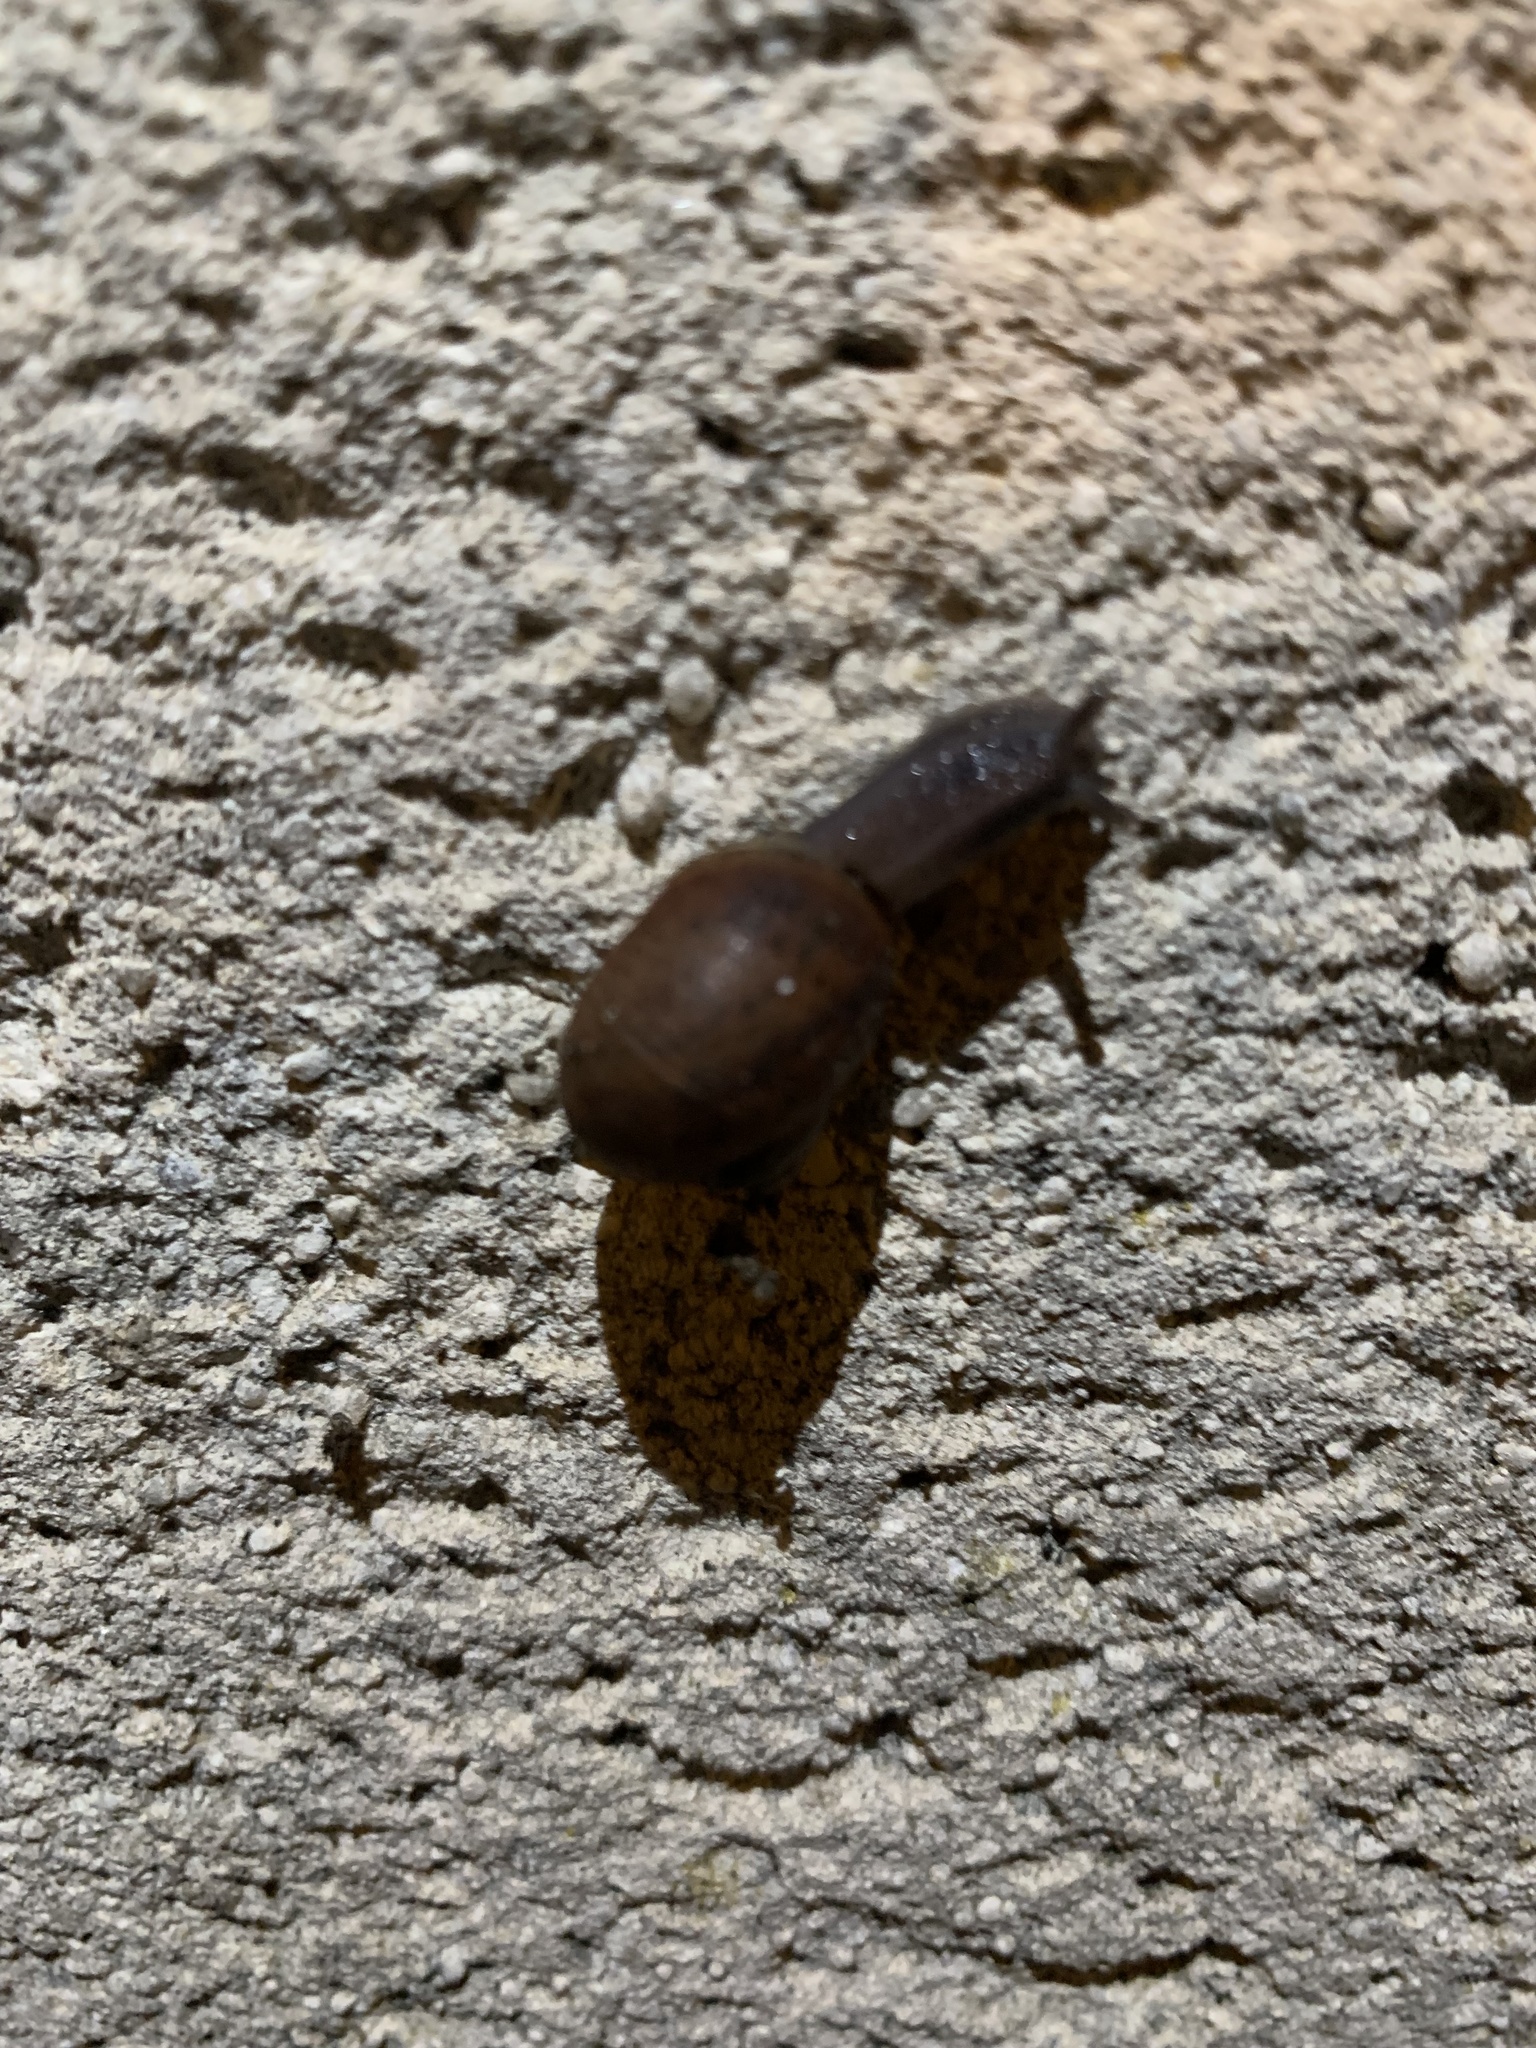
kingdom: Animalia
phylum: Mollusca
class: Gastropoda
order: Stylommatophora
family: Helicidae
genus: Cornu
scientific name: Cornu aspersum
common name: Brown garden snail
